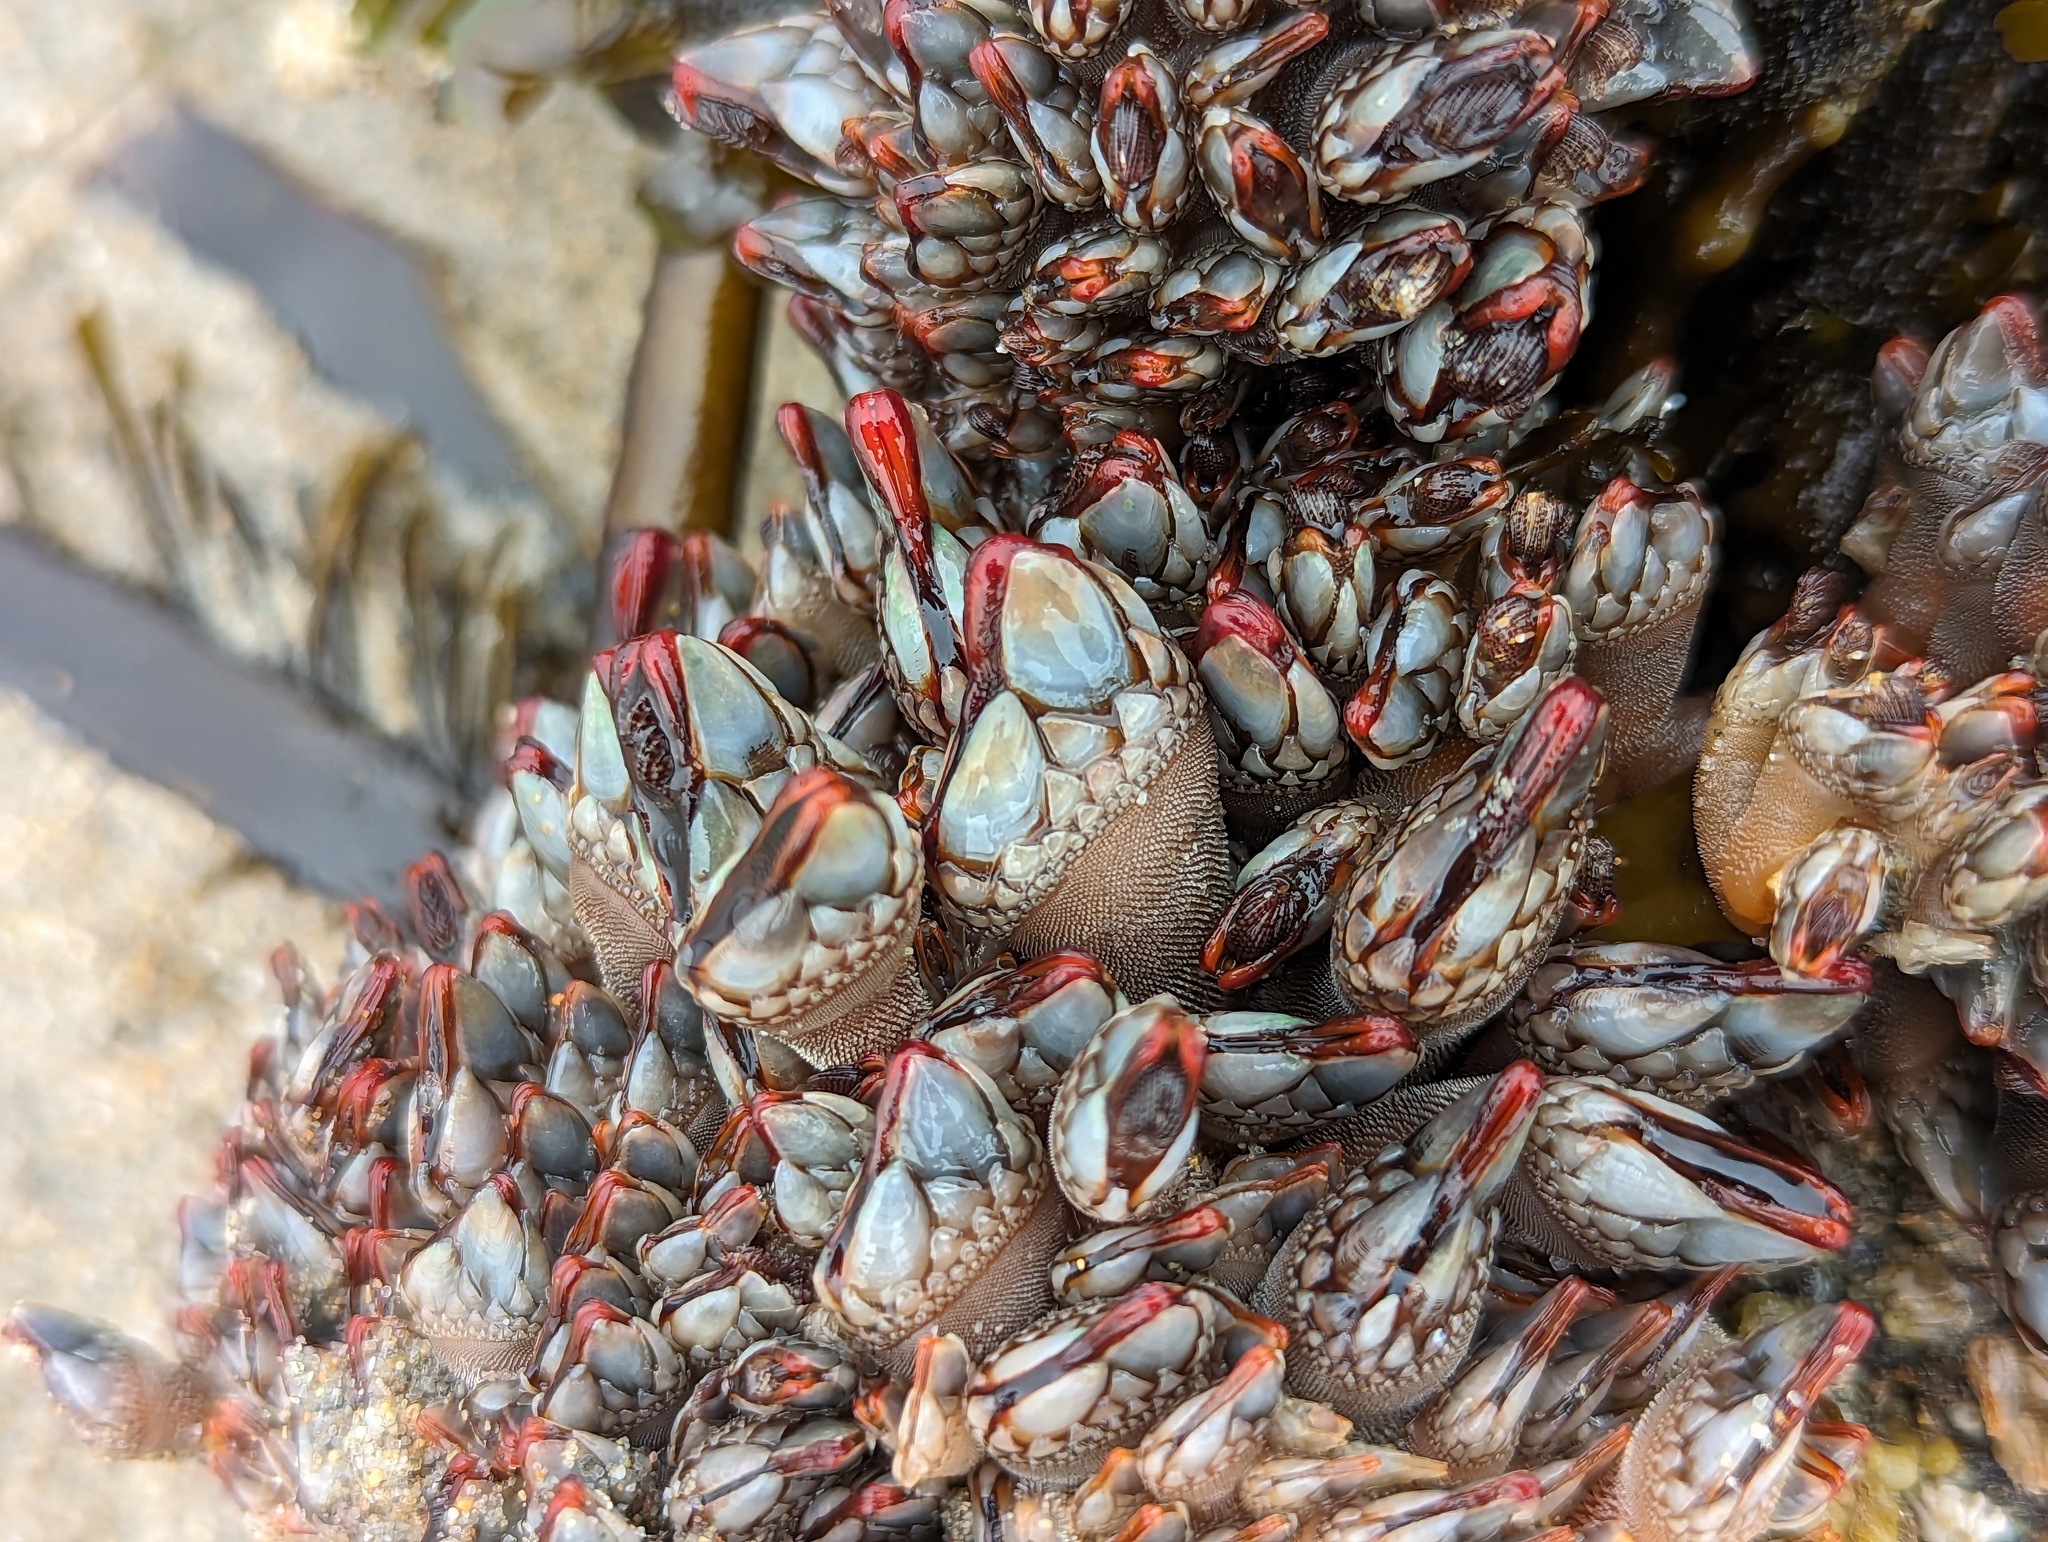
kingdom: Animalia
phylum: Arthropoda
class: Maxillopoda
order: Pedunculata
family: Pollicipedidae
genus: Pollicipes
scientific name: Pollicipes polymerus
